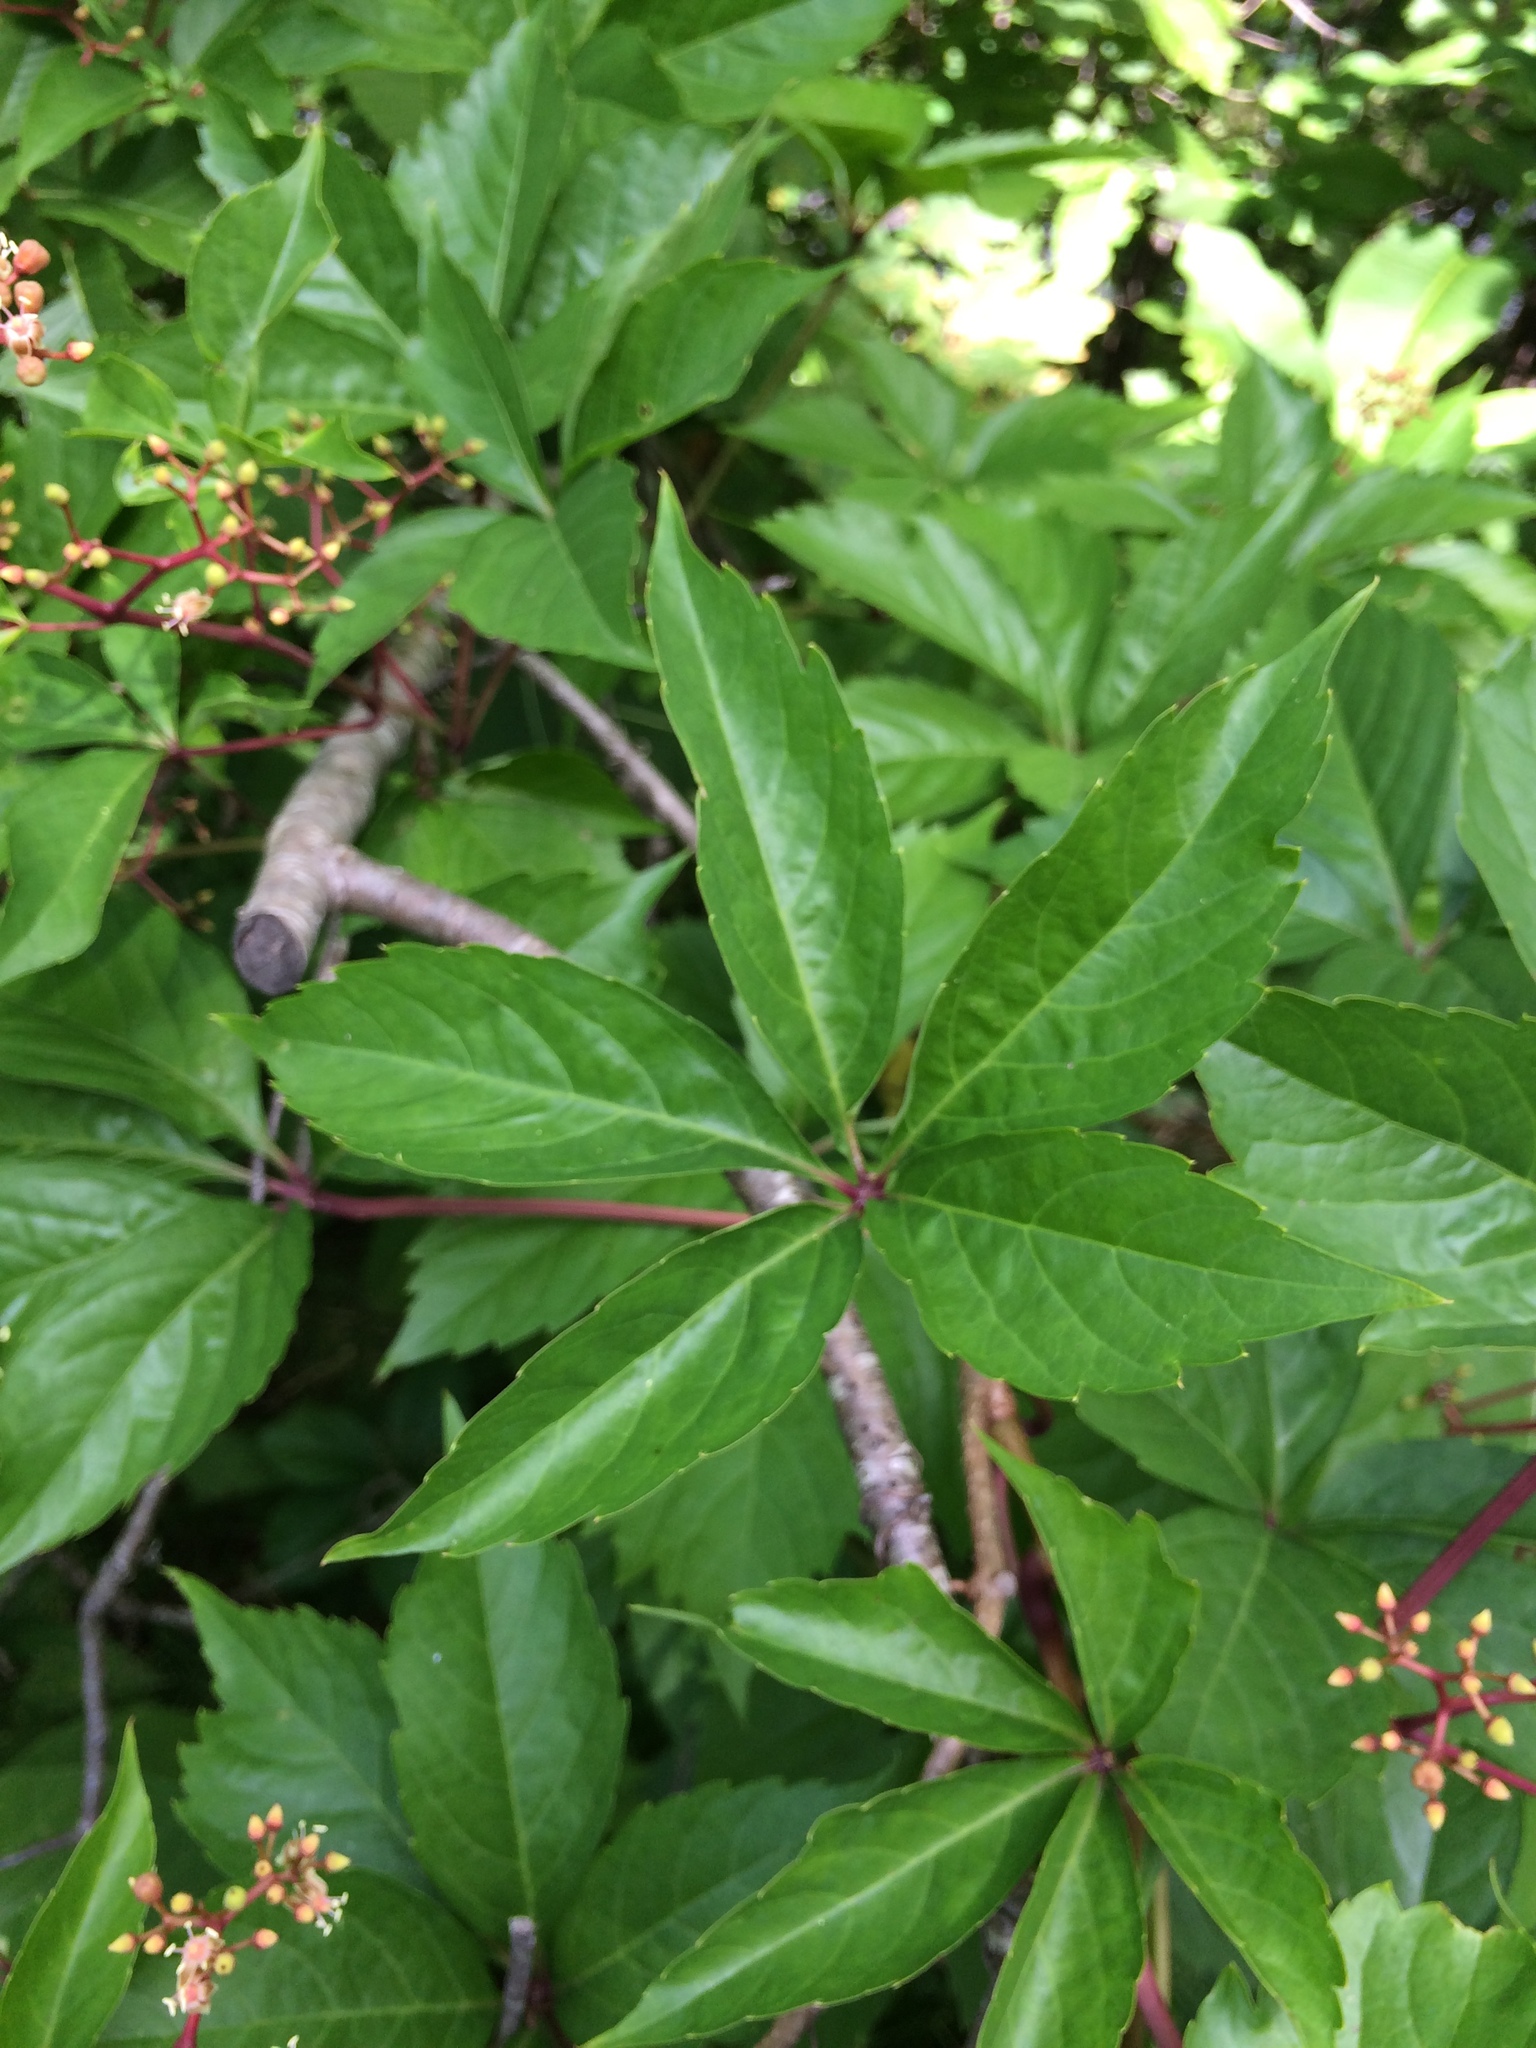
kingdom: Plantae
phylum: Tracheophyta
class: Magnoliopsida
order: Vitales
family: Vitaceae
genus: Parthenocissus
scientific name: Parthenocissus quinquefolia
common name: Virginia-creeper
